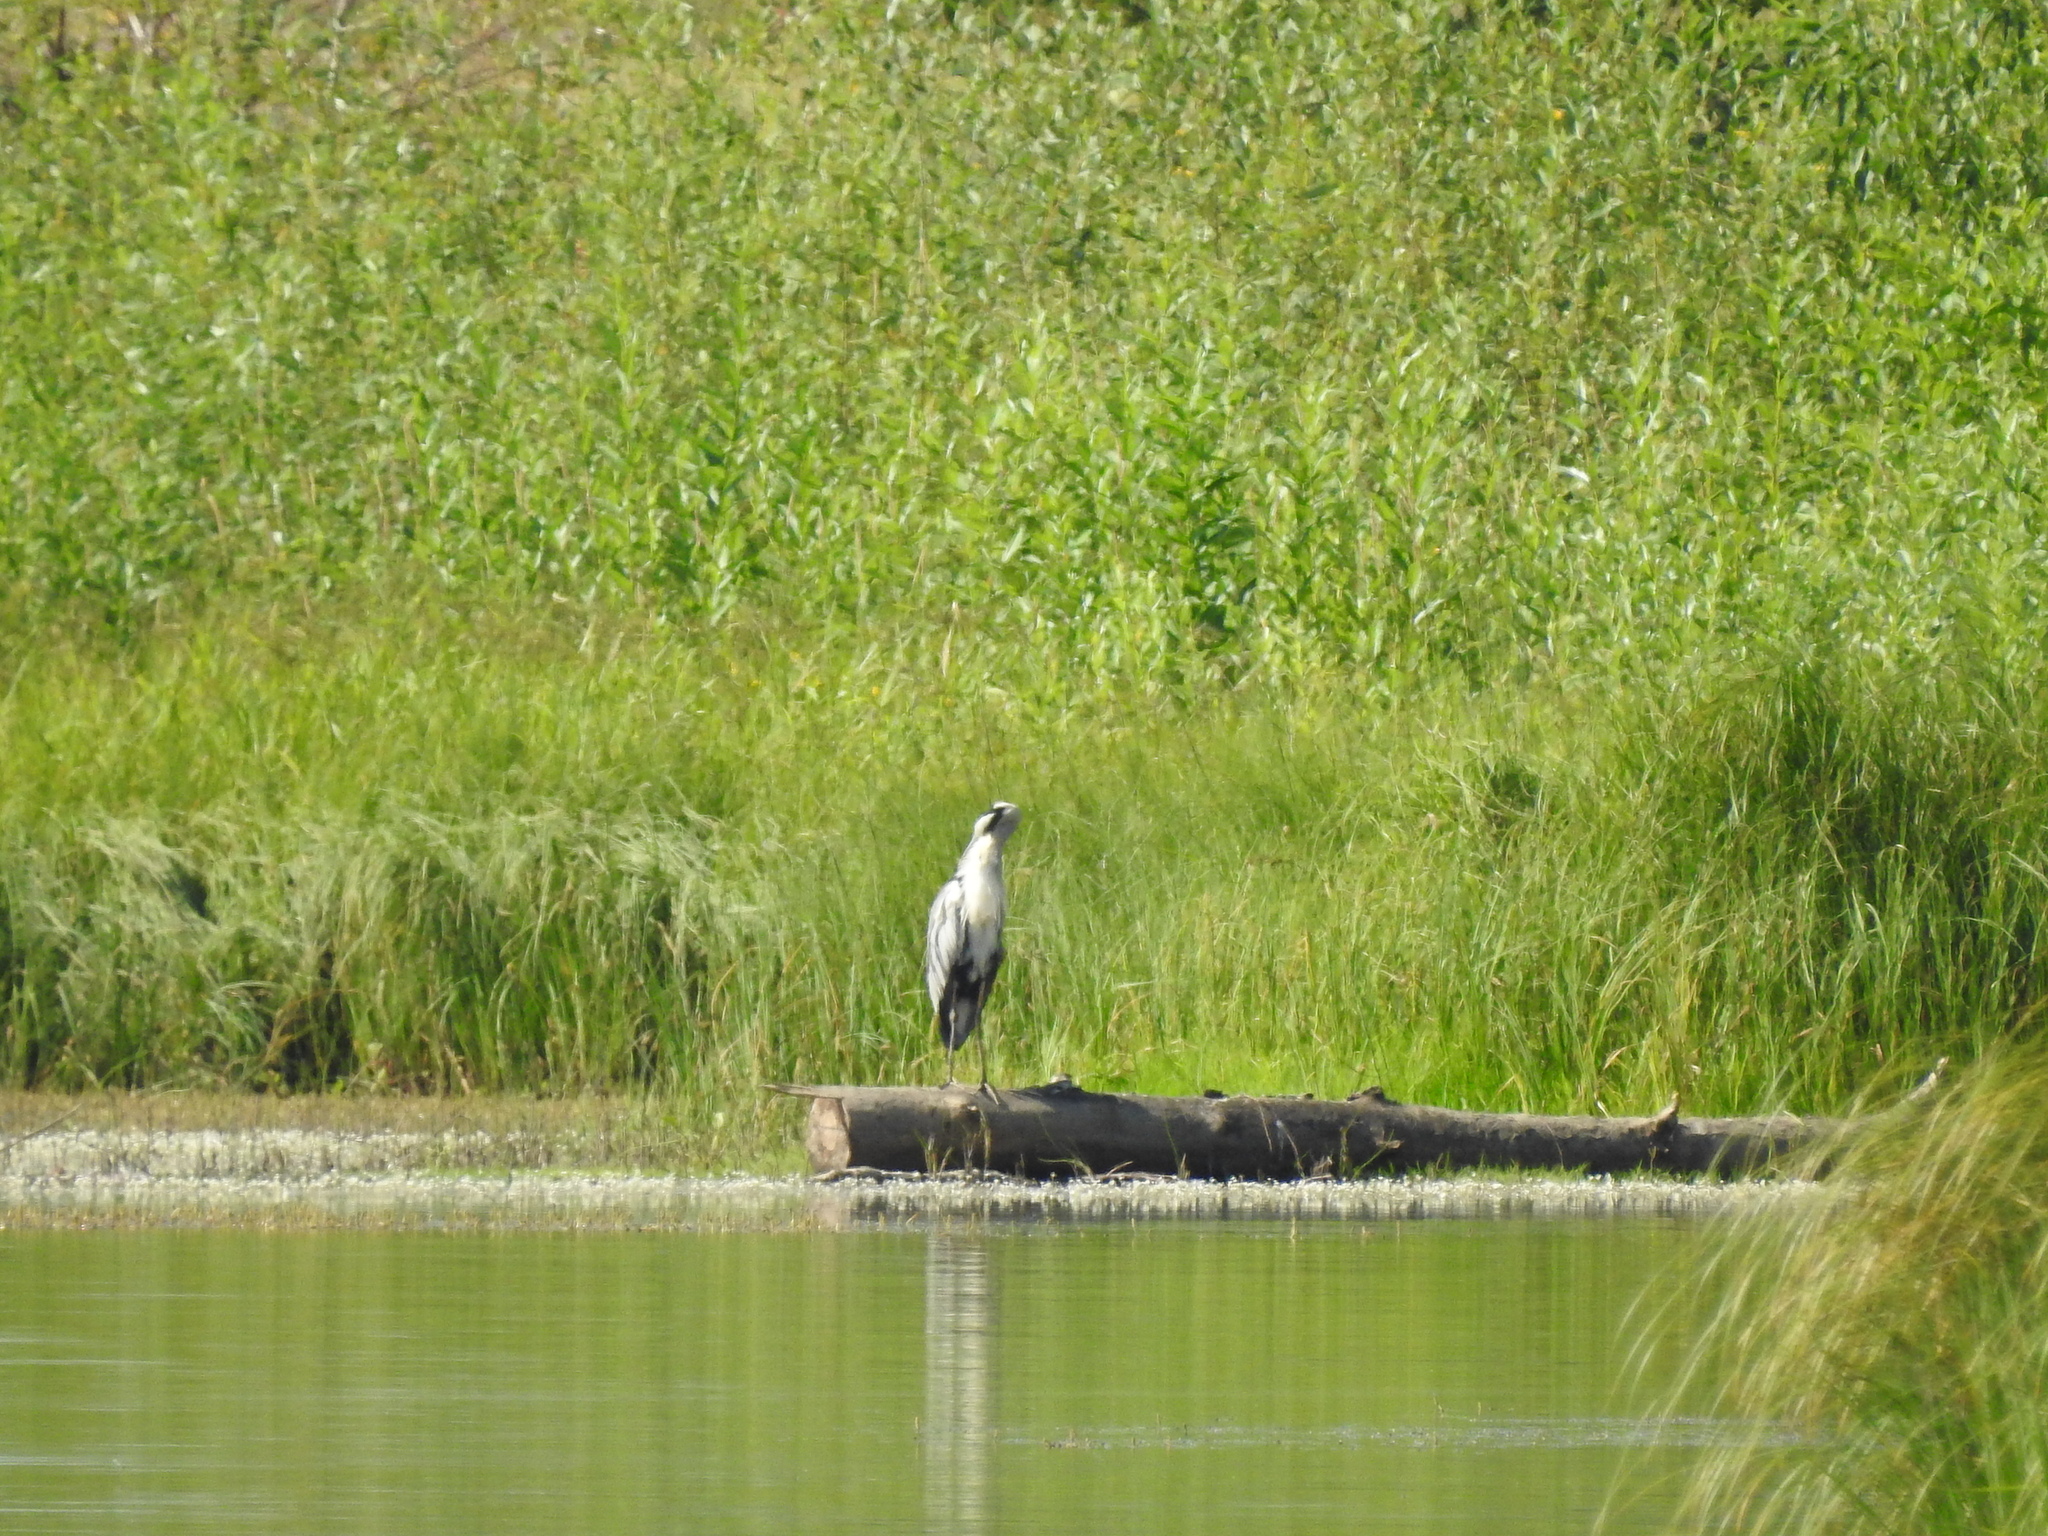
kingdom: Animalia
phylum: Chordata
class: Aves
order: Pelecaniformes
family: Ardeidae
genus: Ardea
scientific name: Ardea cinerea
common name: Grey heron
